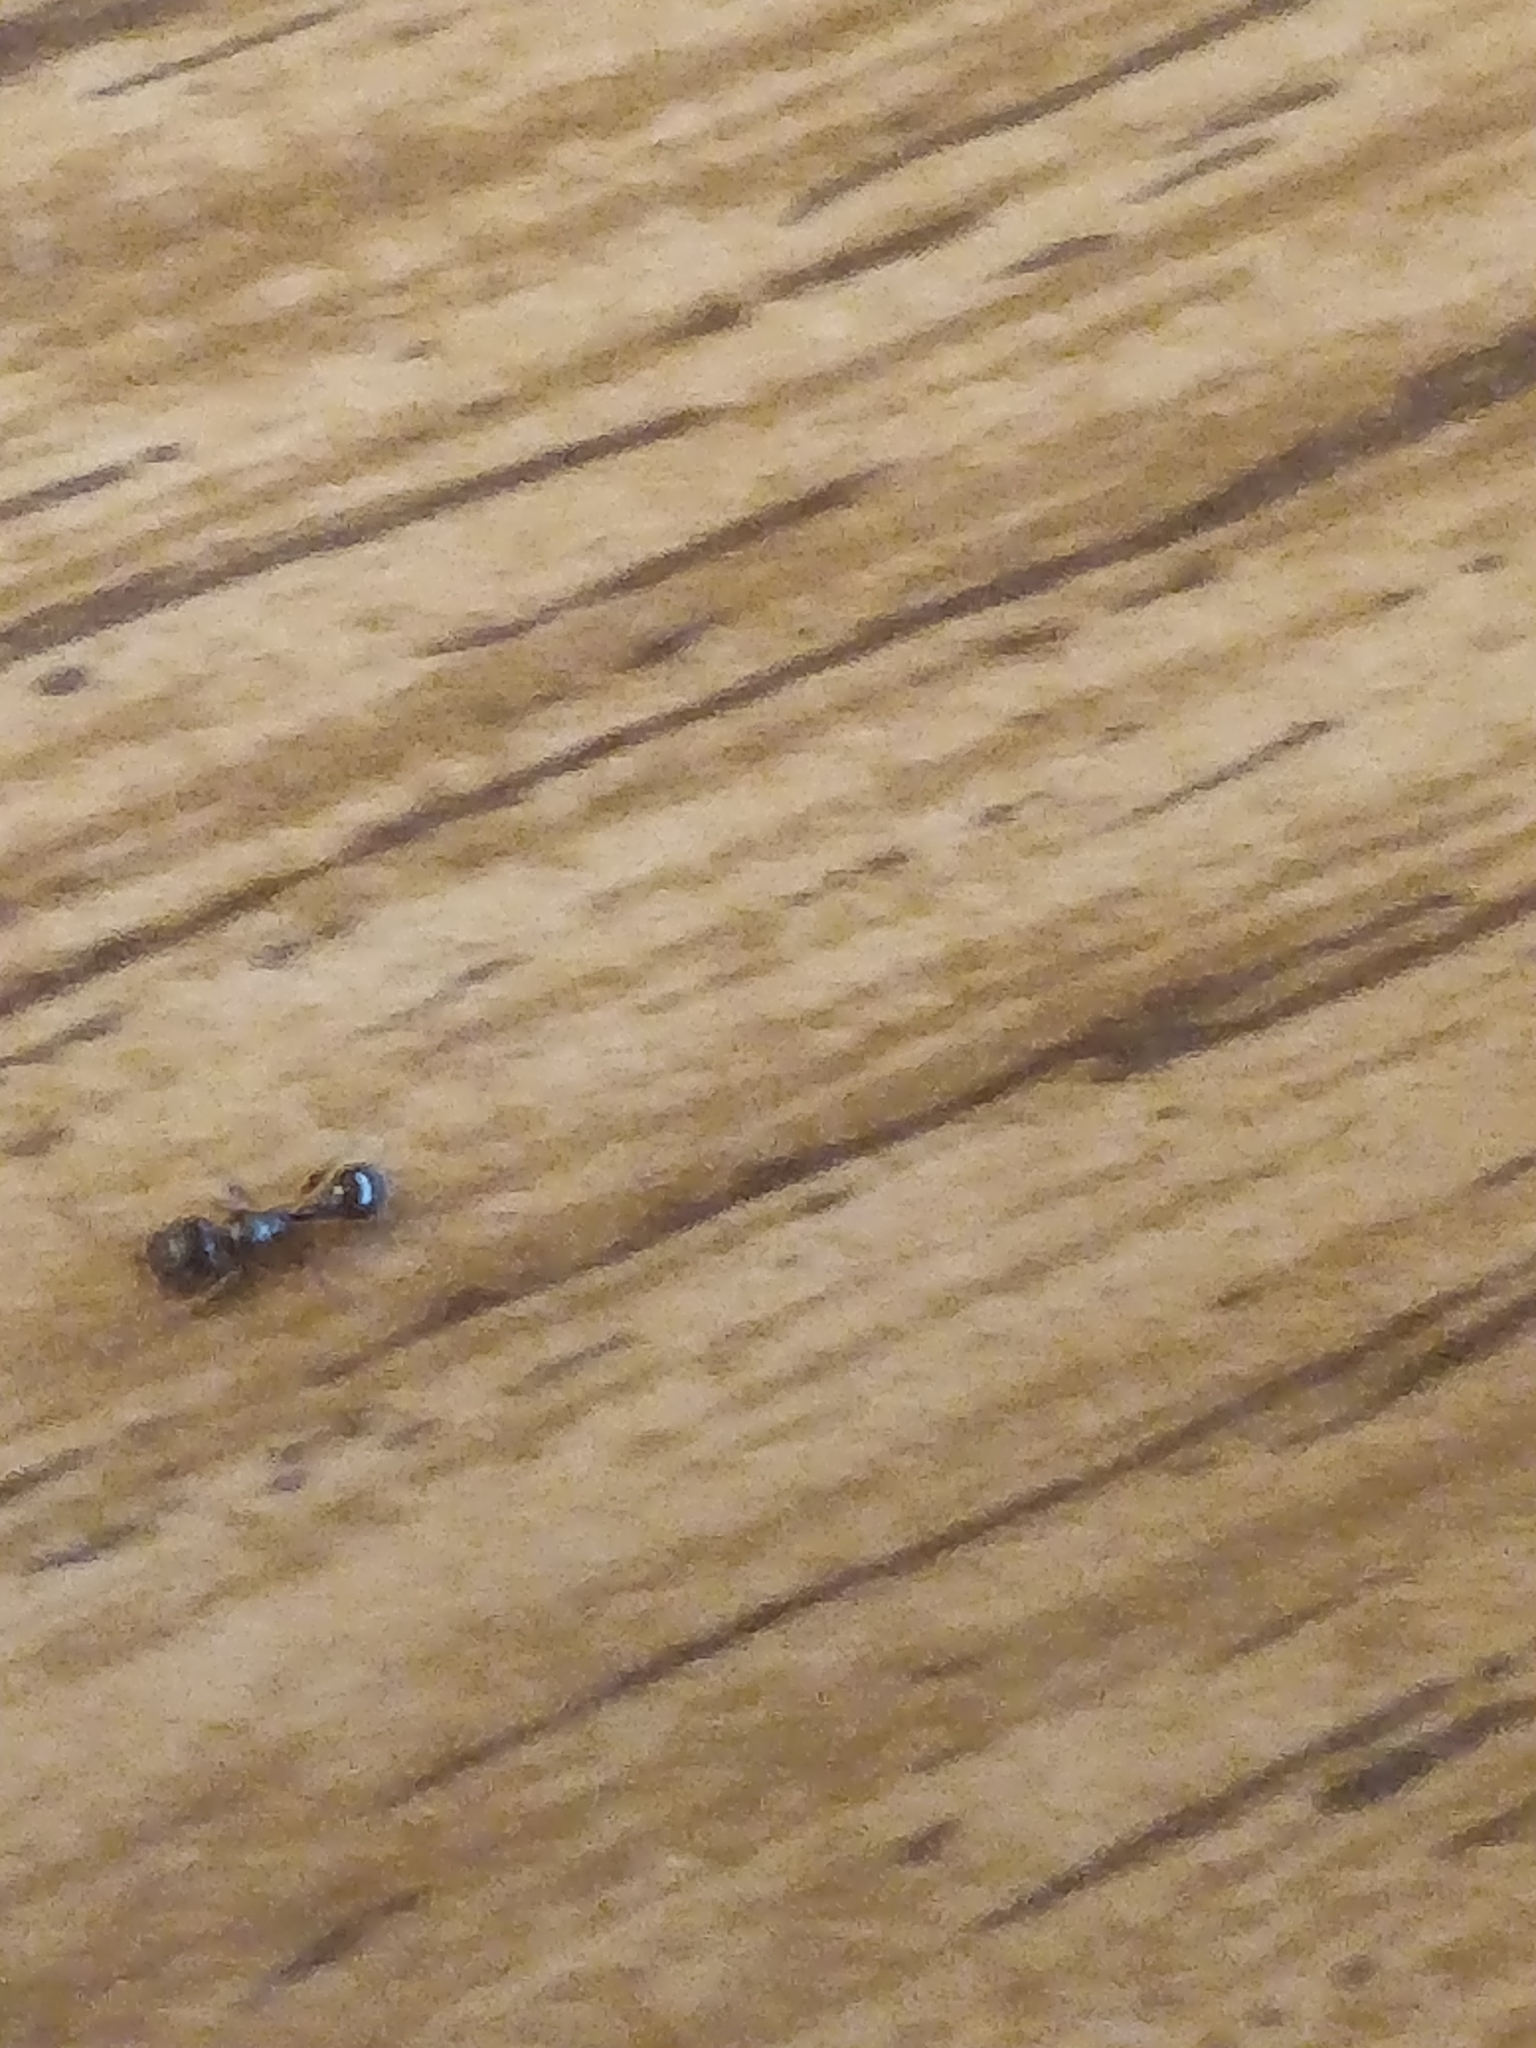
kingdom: Animalia
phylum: Arthropoda
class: Insecta
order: Hymenoptera
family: Formicidae
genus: Tetramorium
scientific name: Tetramorium immigrans
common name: Pavement ant
